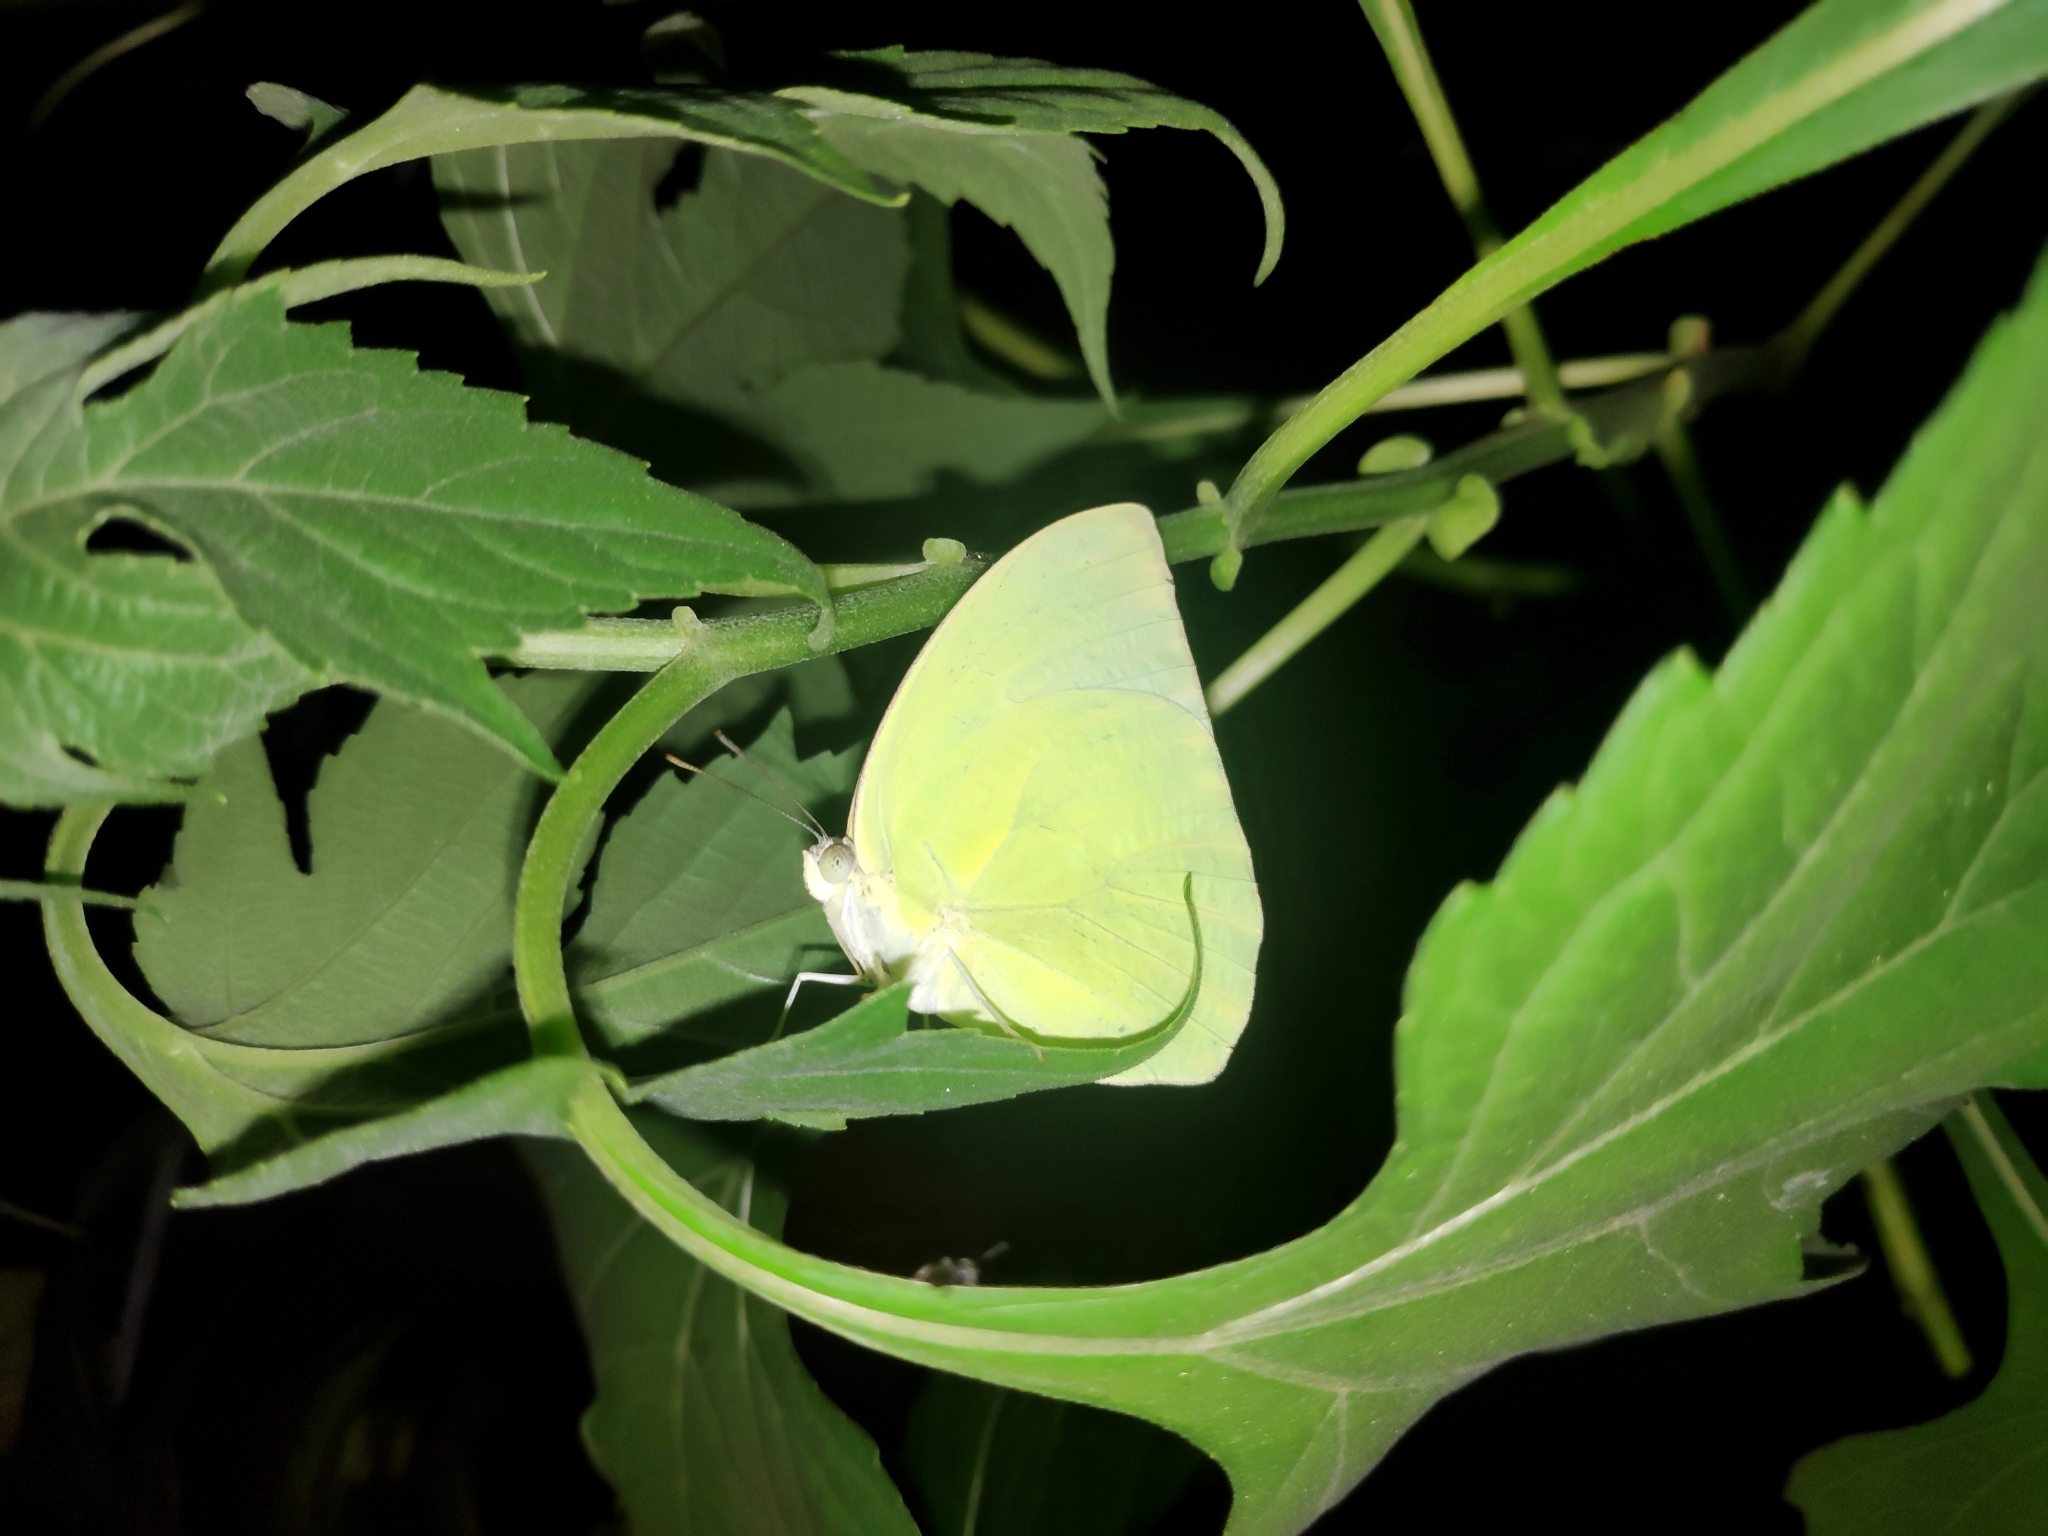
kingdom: Animalia
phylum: Arthropoda
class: Insecta
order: Lepidoptera
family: Pieridae
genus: Catopsilia
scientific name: Catopsilia pomona
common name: Common emigrant
